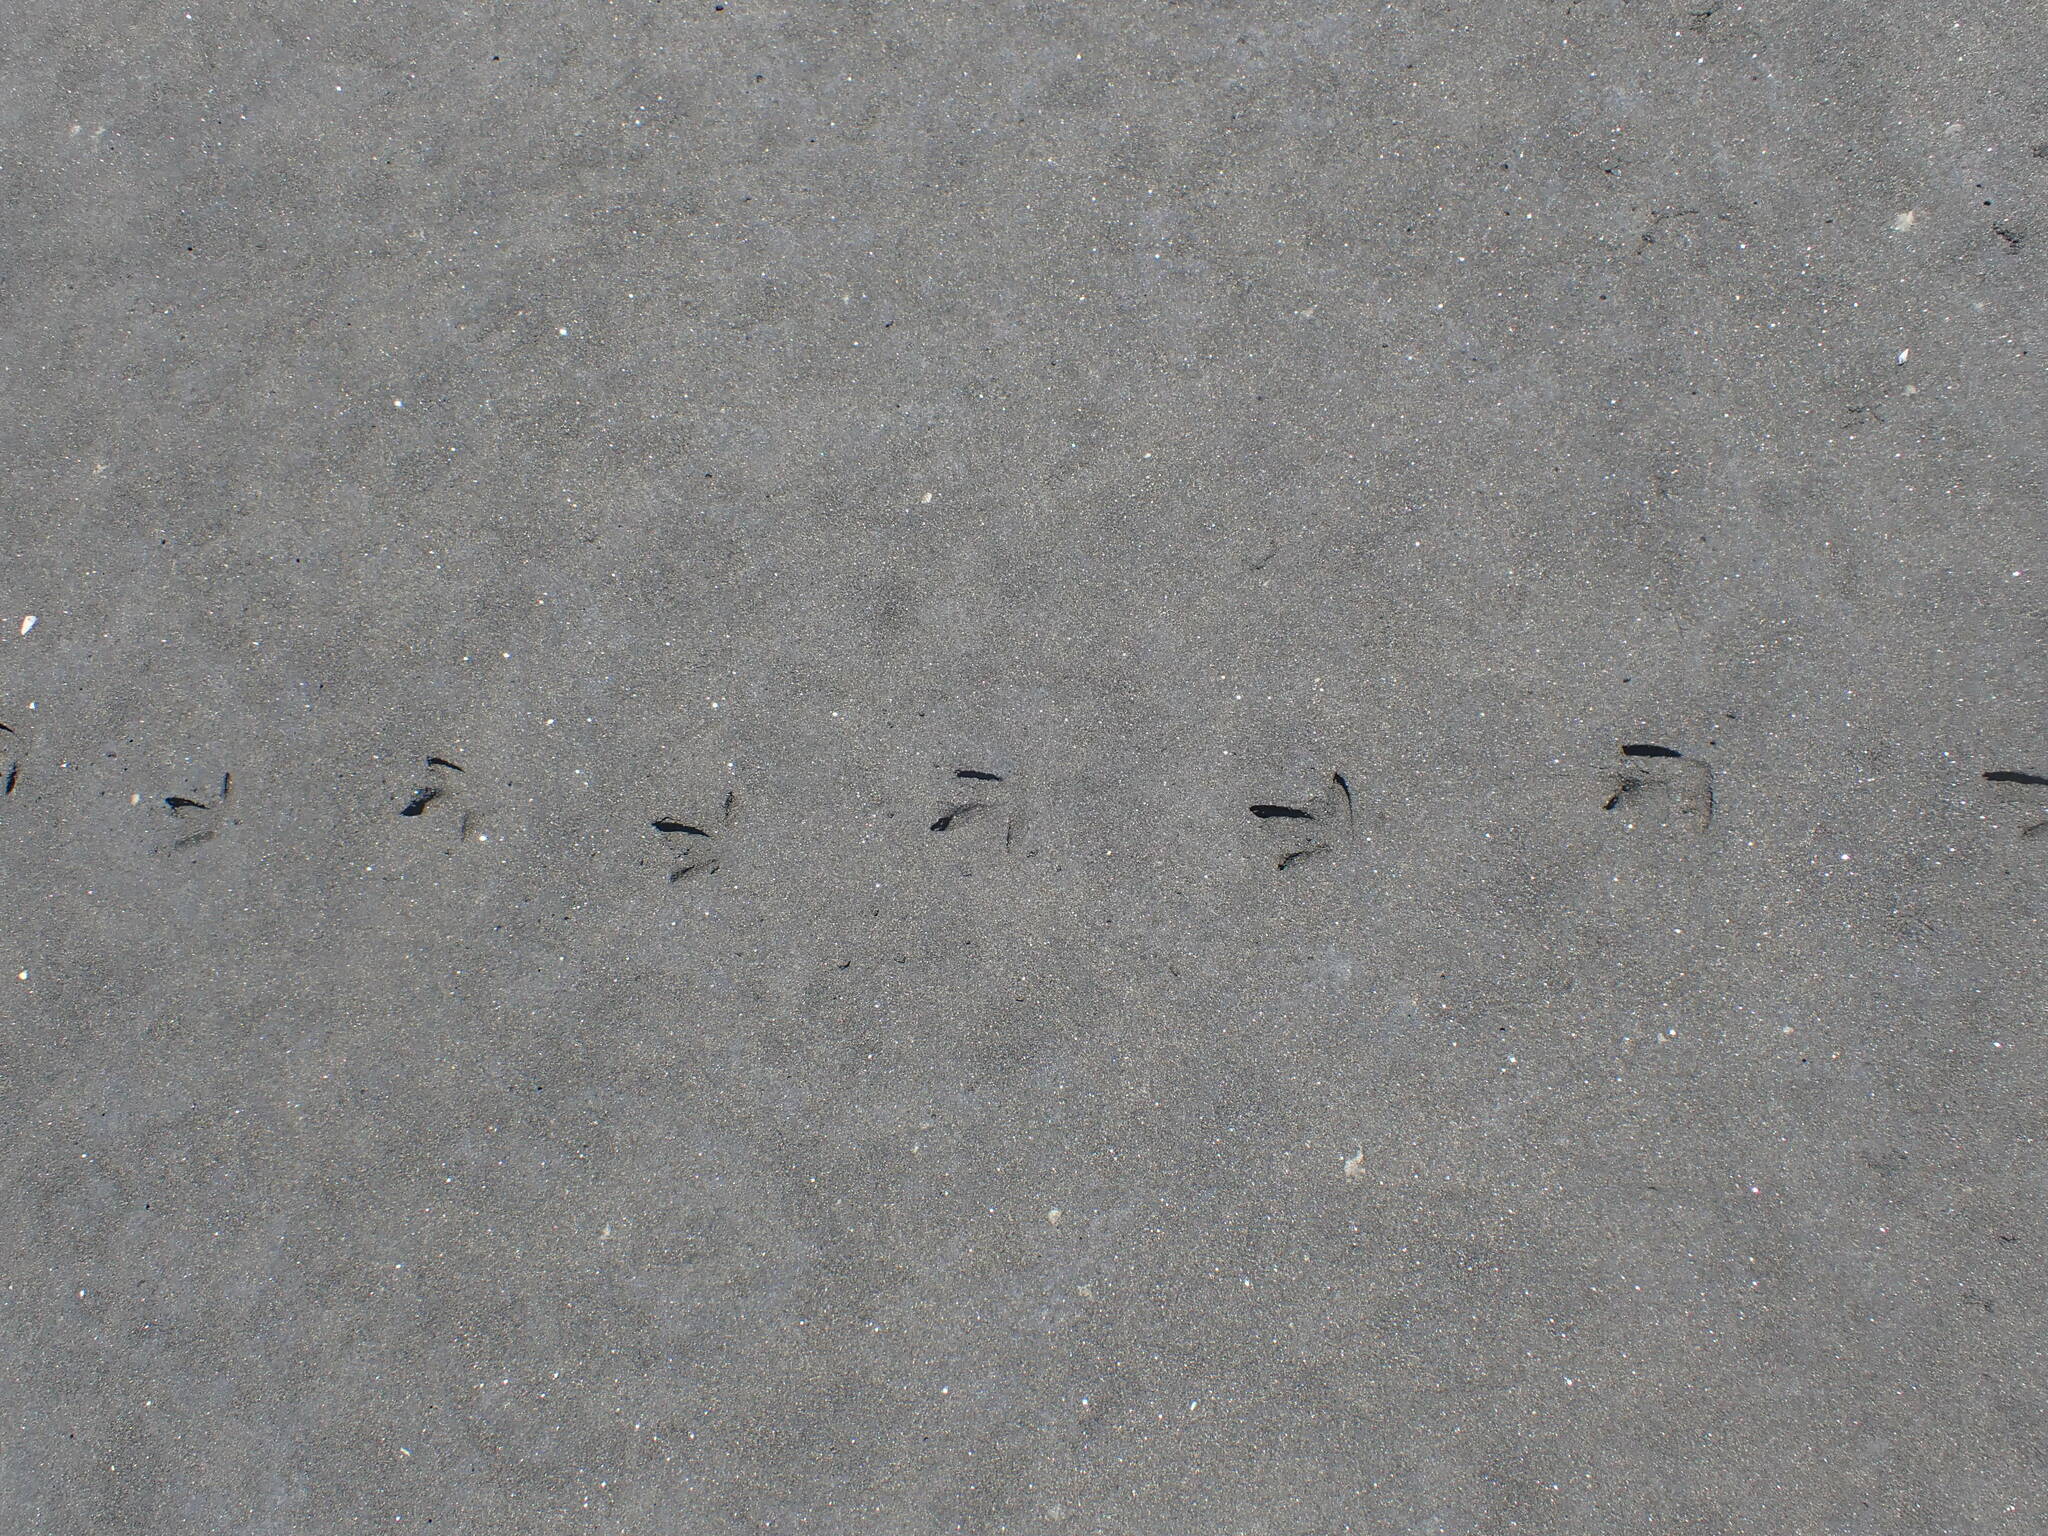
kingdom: Animalia
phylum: Chordata
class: Aves
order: Charadriiformes
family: Haematopodidae
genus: Haematopus
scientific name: Haematopus unicolor
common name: Variable oystercatcher
